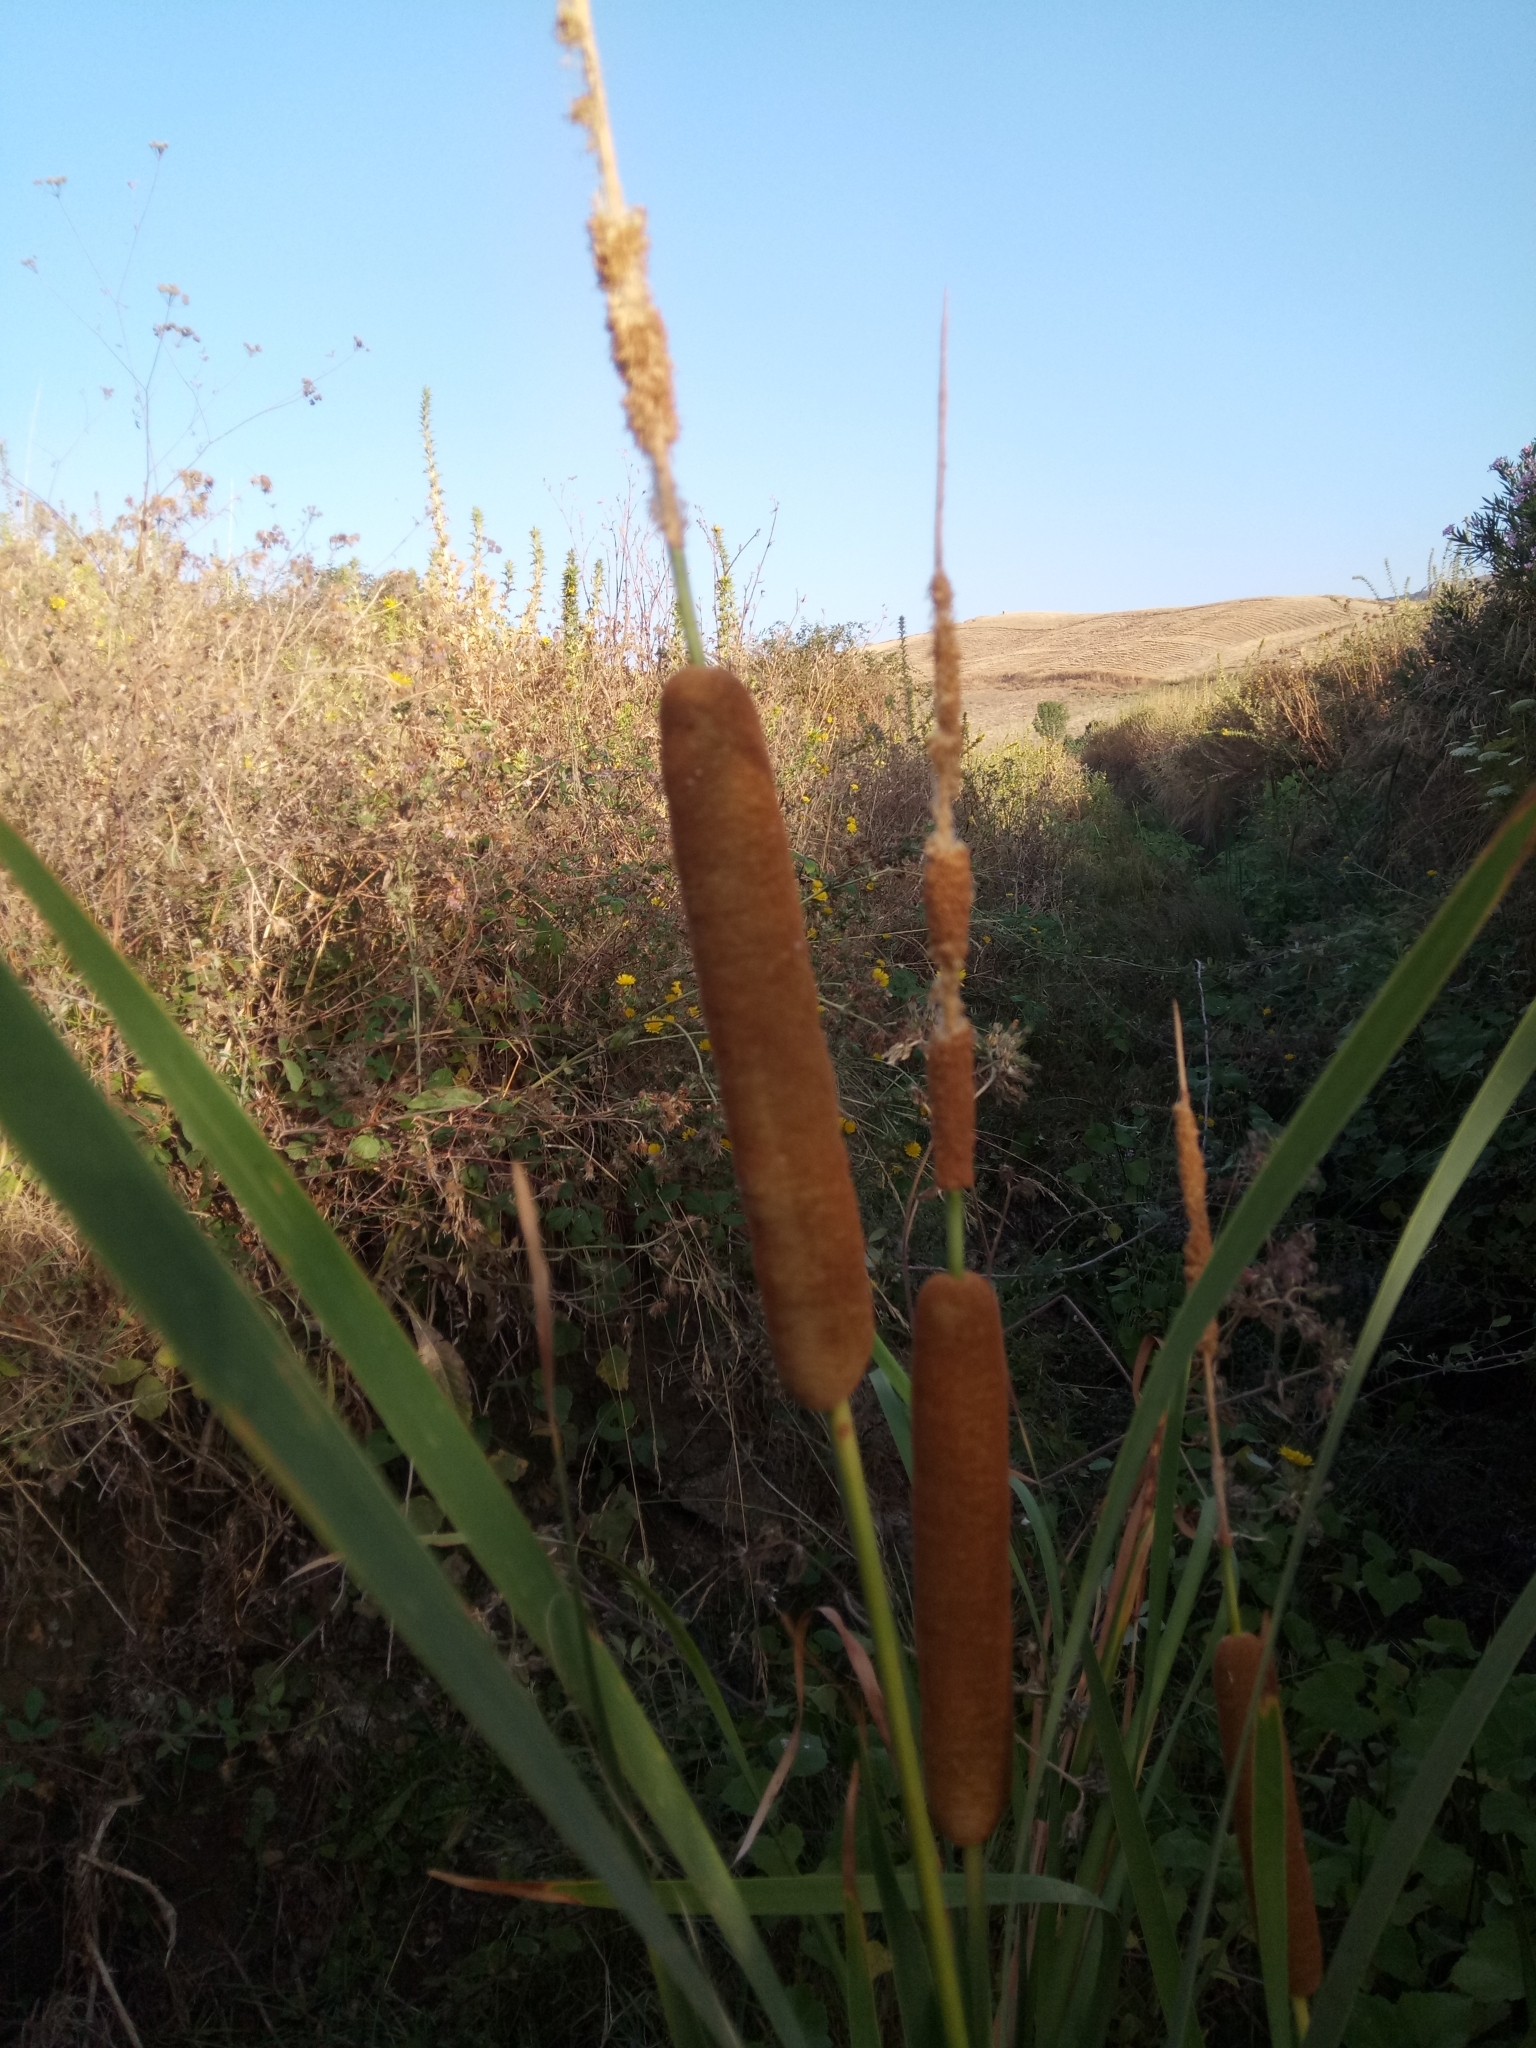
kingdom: Plantae
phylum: Tracheophyta
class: Liliopsida
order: Poales
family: Typhaceae
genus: Typha
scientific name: Typha domingensis
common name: Southern cattail
